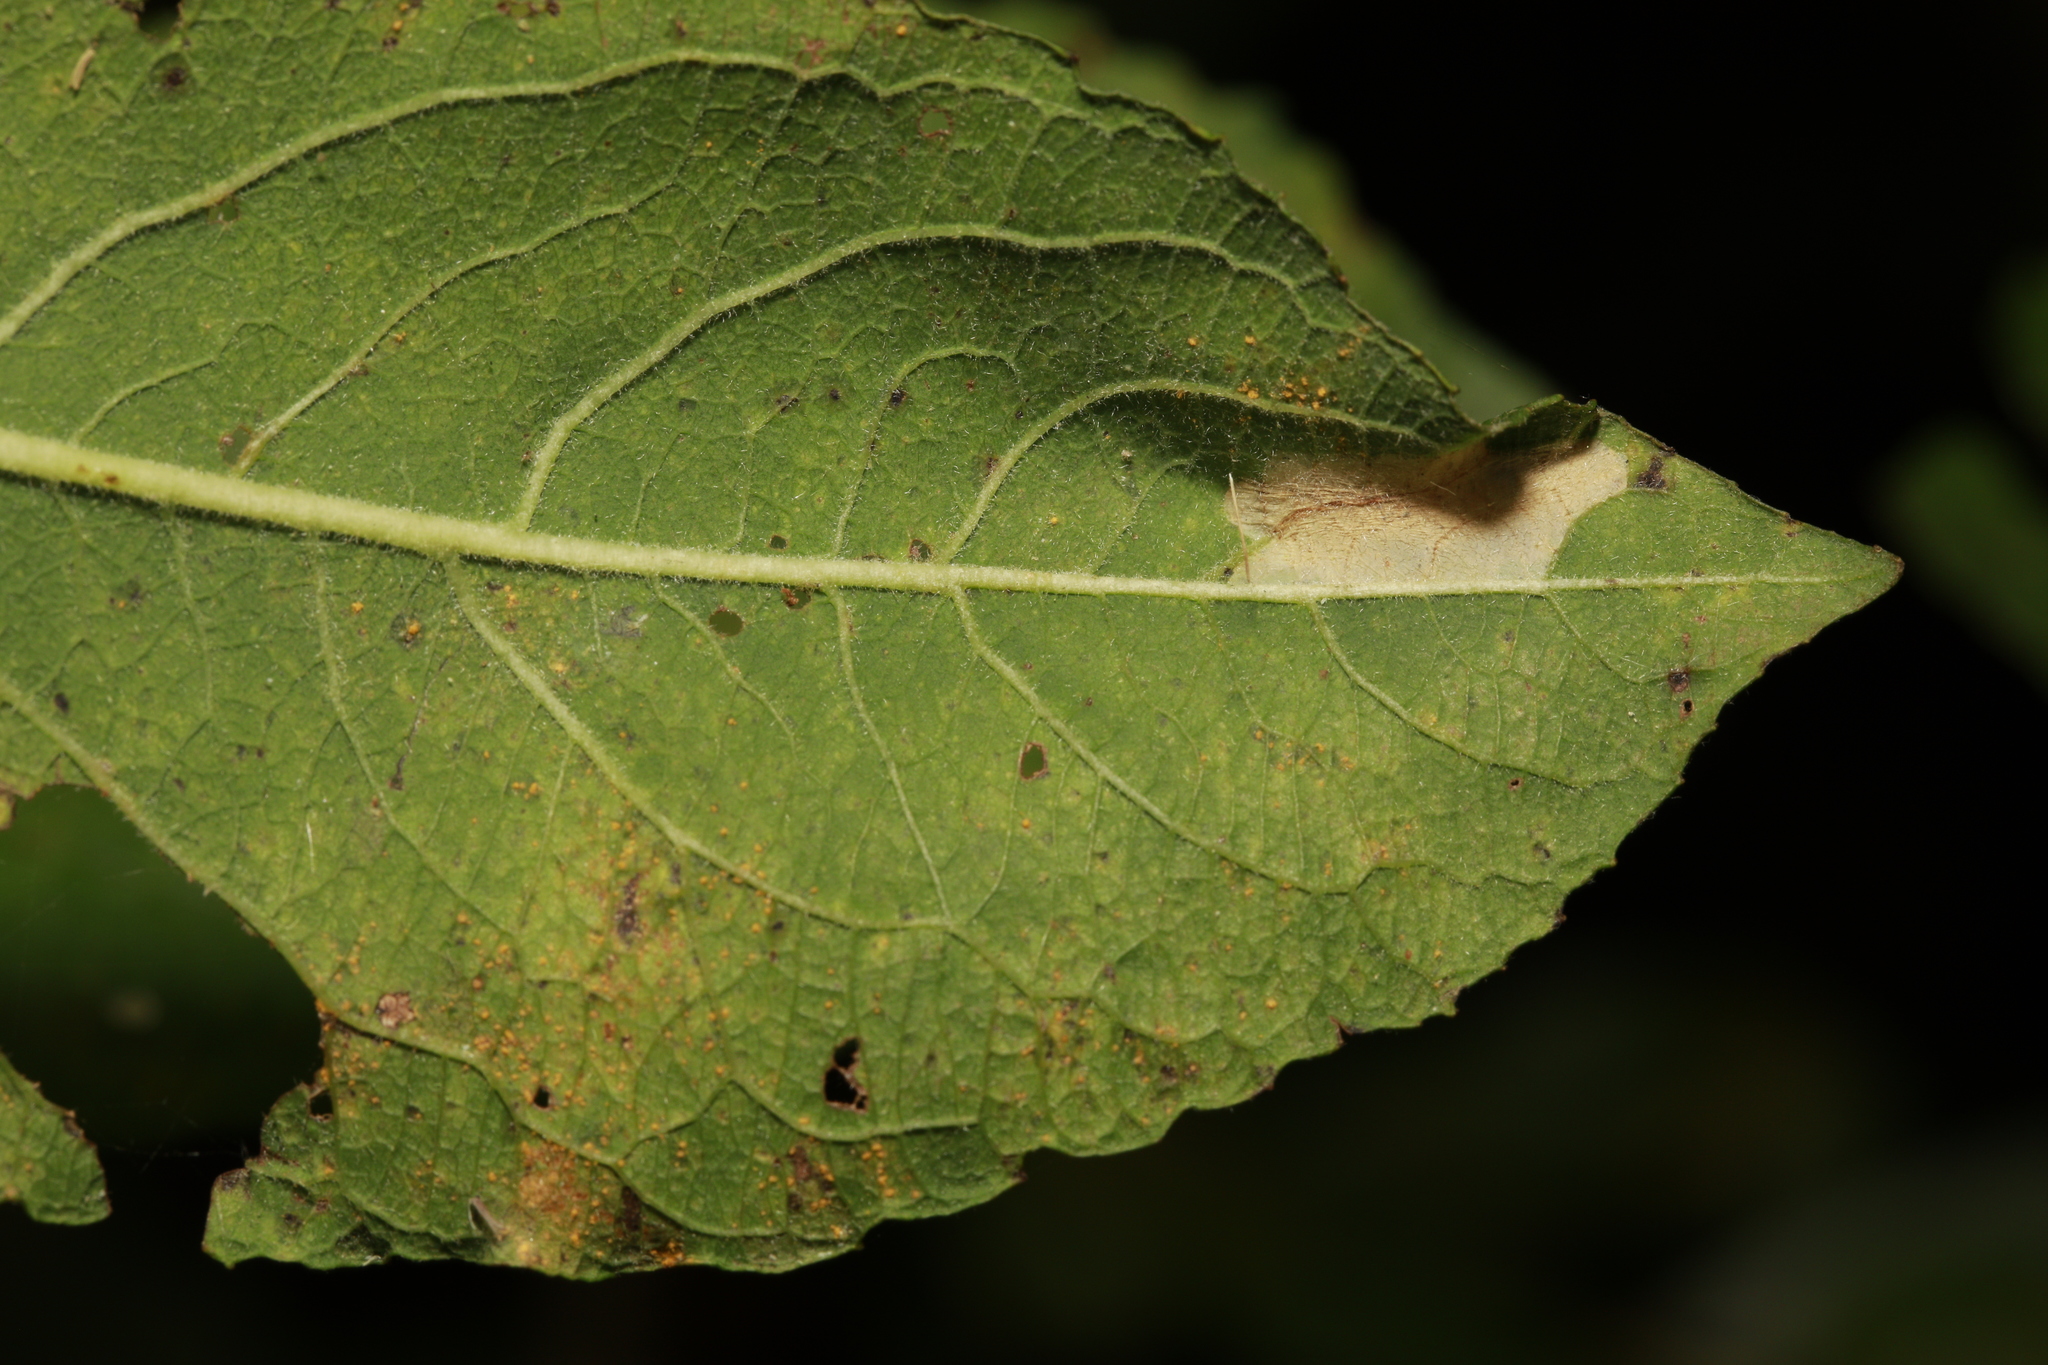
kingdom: Animalia
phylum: Arthropoda
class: Insecta
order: Lepidoptera
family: Gracillariidae
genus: Phyllonorycter
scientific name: Phyllonorycter salicicolella
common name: Long-streak midget
